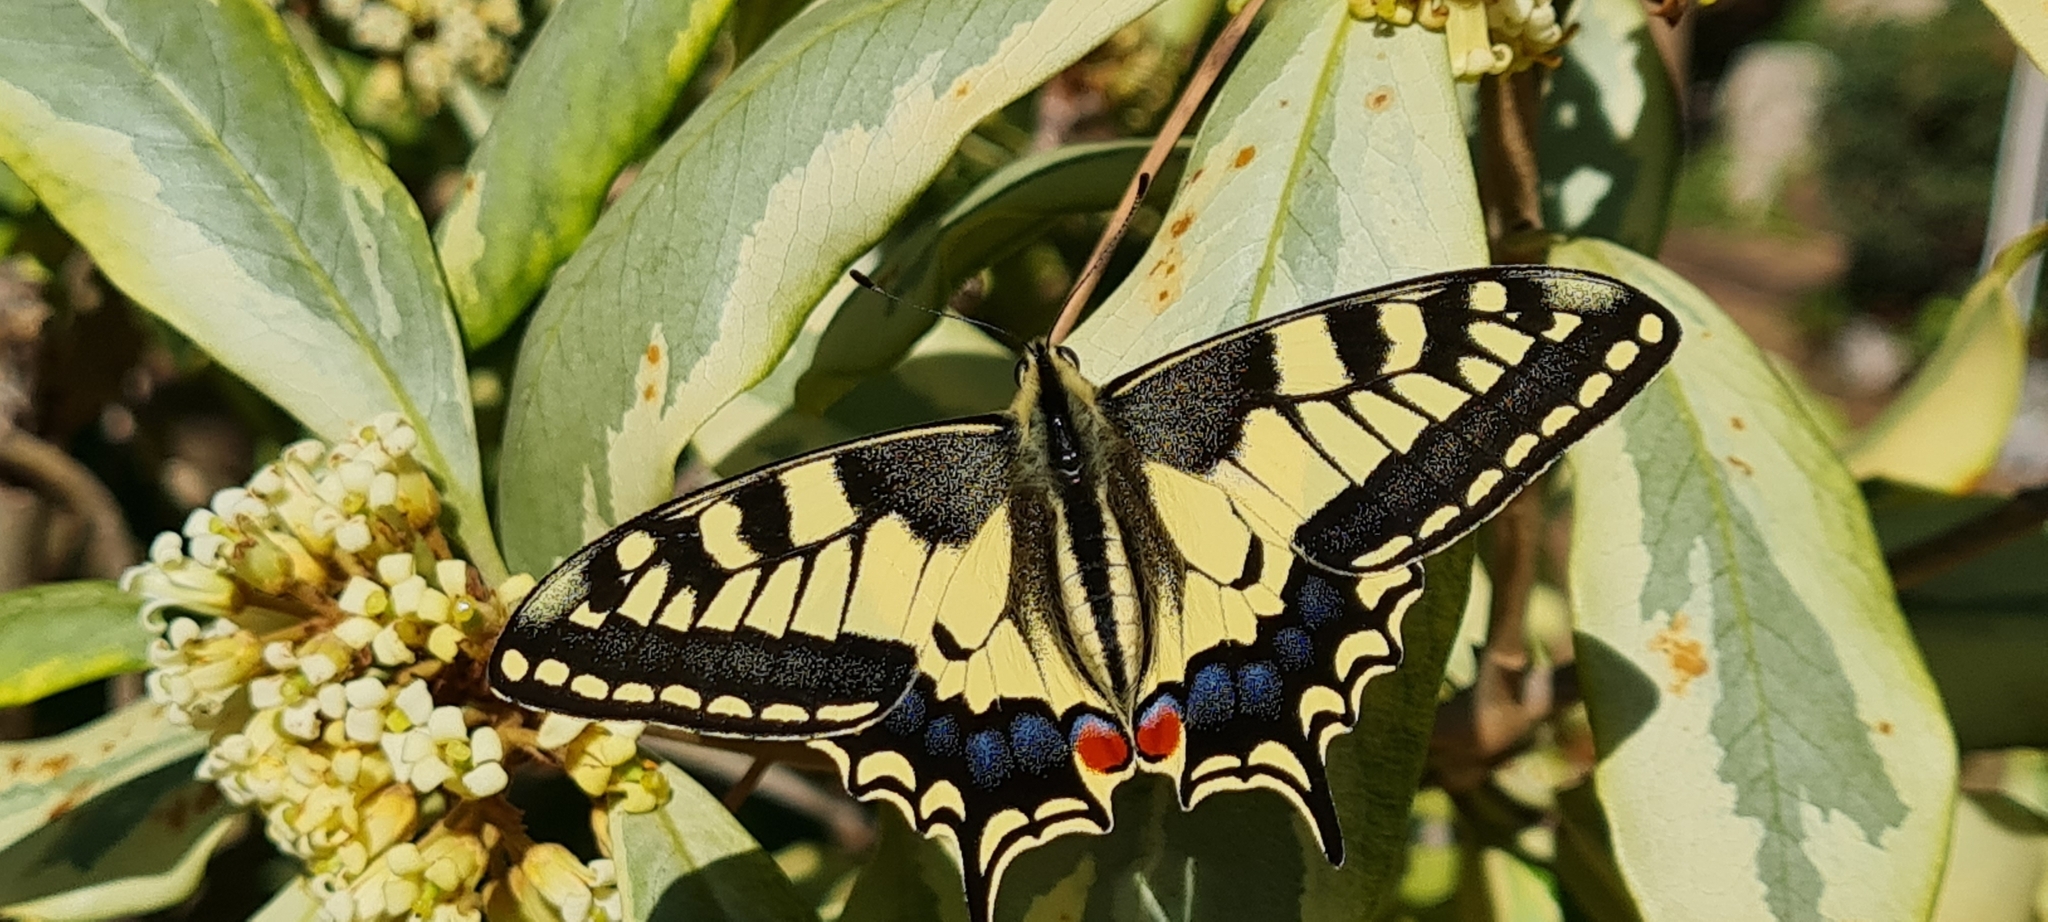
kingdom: Animalia
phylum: Arthropoda
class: Insecta
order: Lepidoptera
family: Papilionidae
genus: Papilio
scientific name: Papilio machaon
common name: Swallowtail
